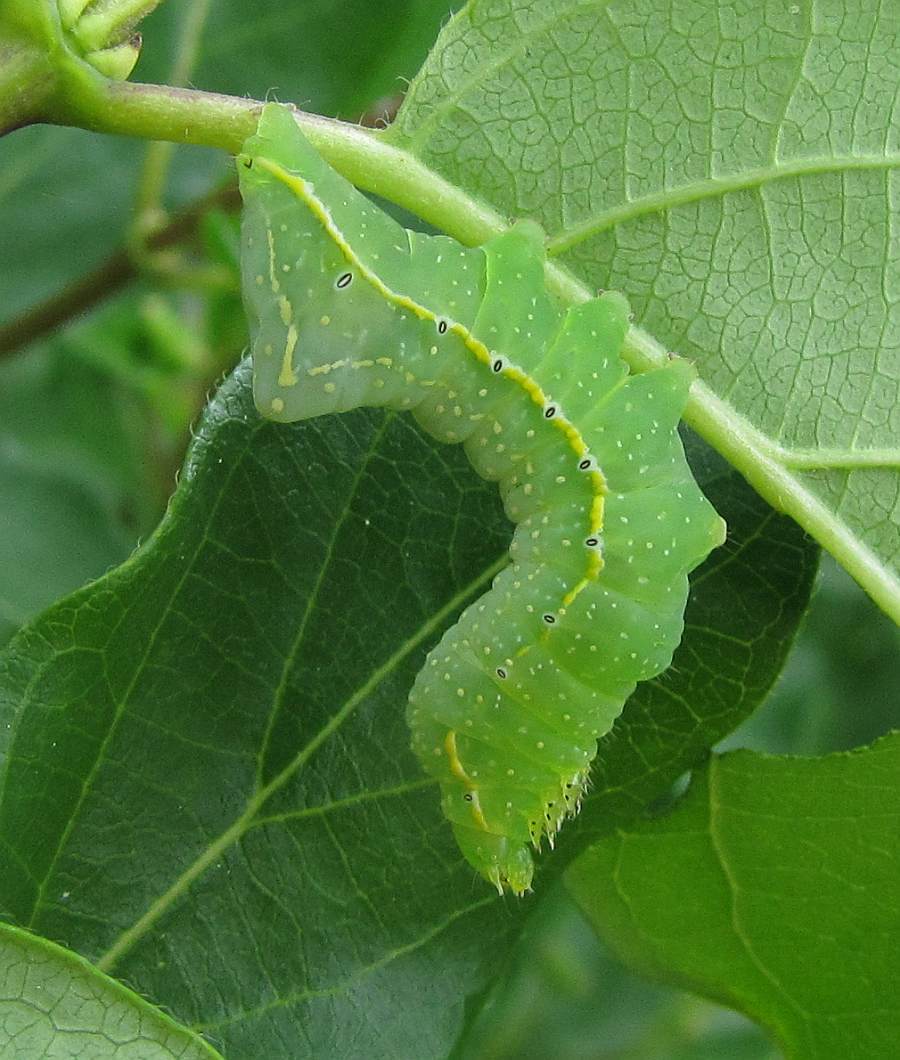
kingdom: Animalia
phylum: Arthropoda
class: Insecta
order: Lepidoptera
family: Noctuidae
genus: Amphipyra
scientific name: Amphipyra pyramidoides
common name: American copper underwing
